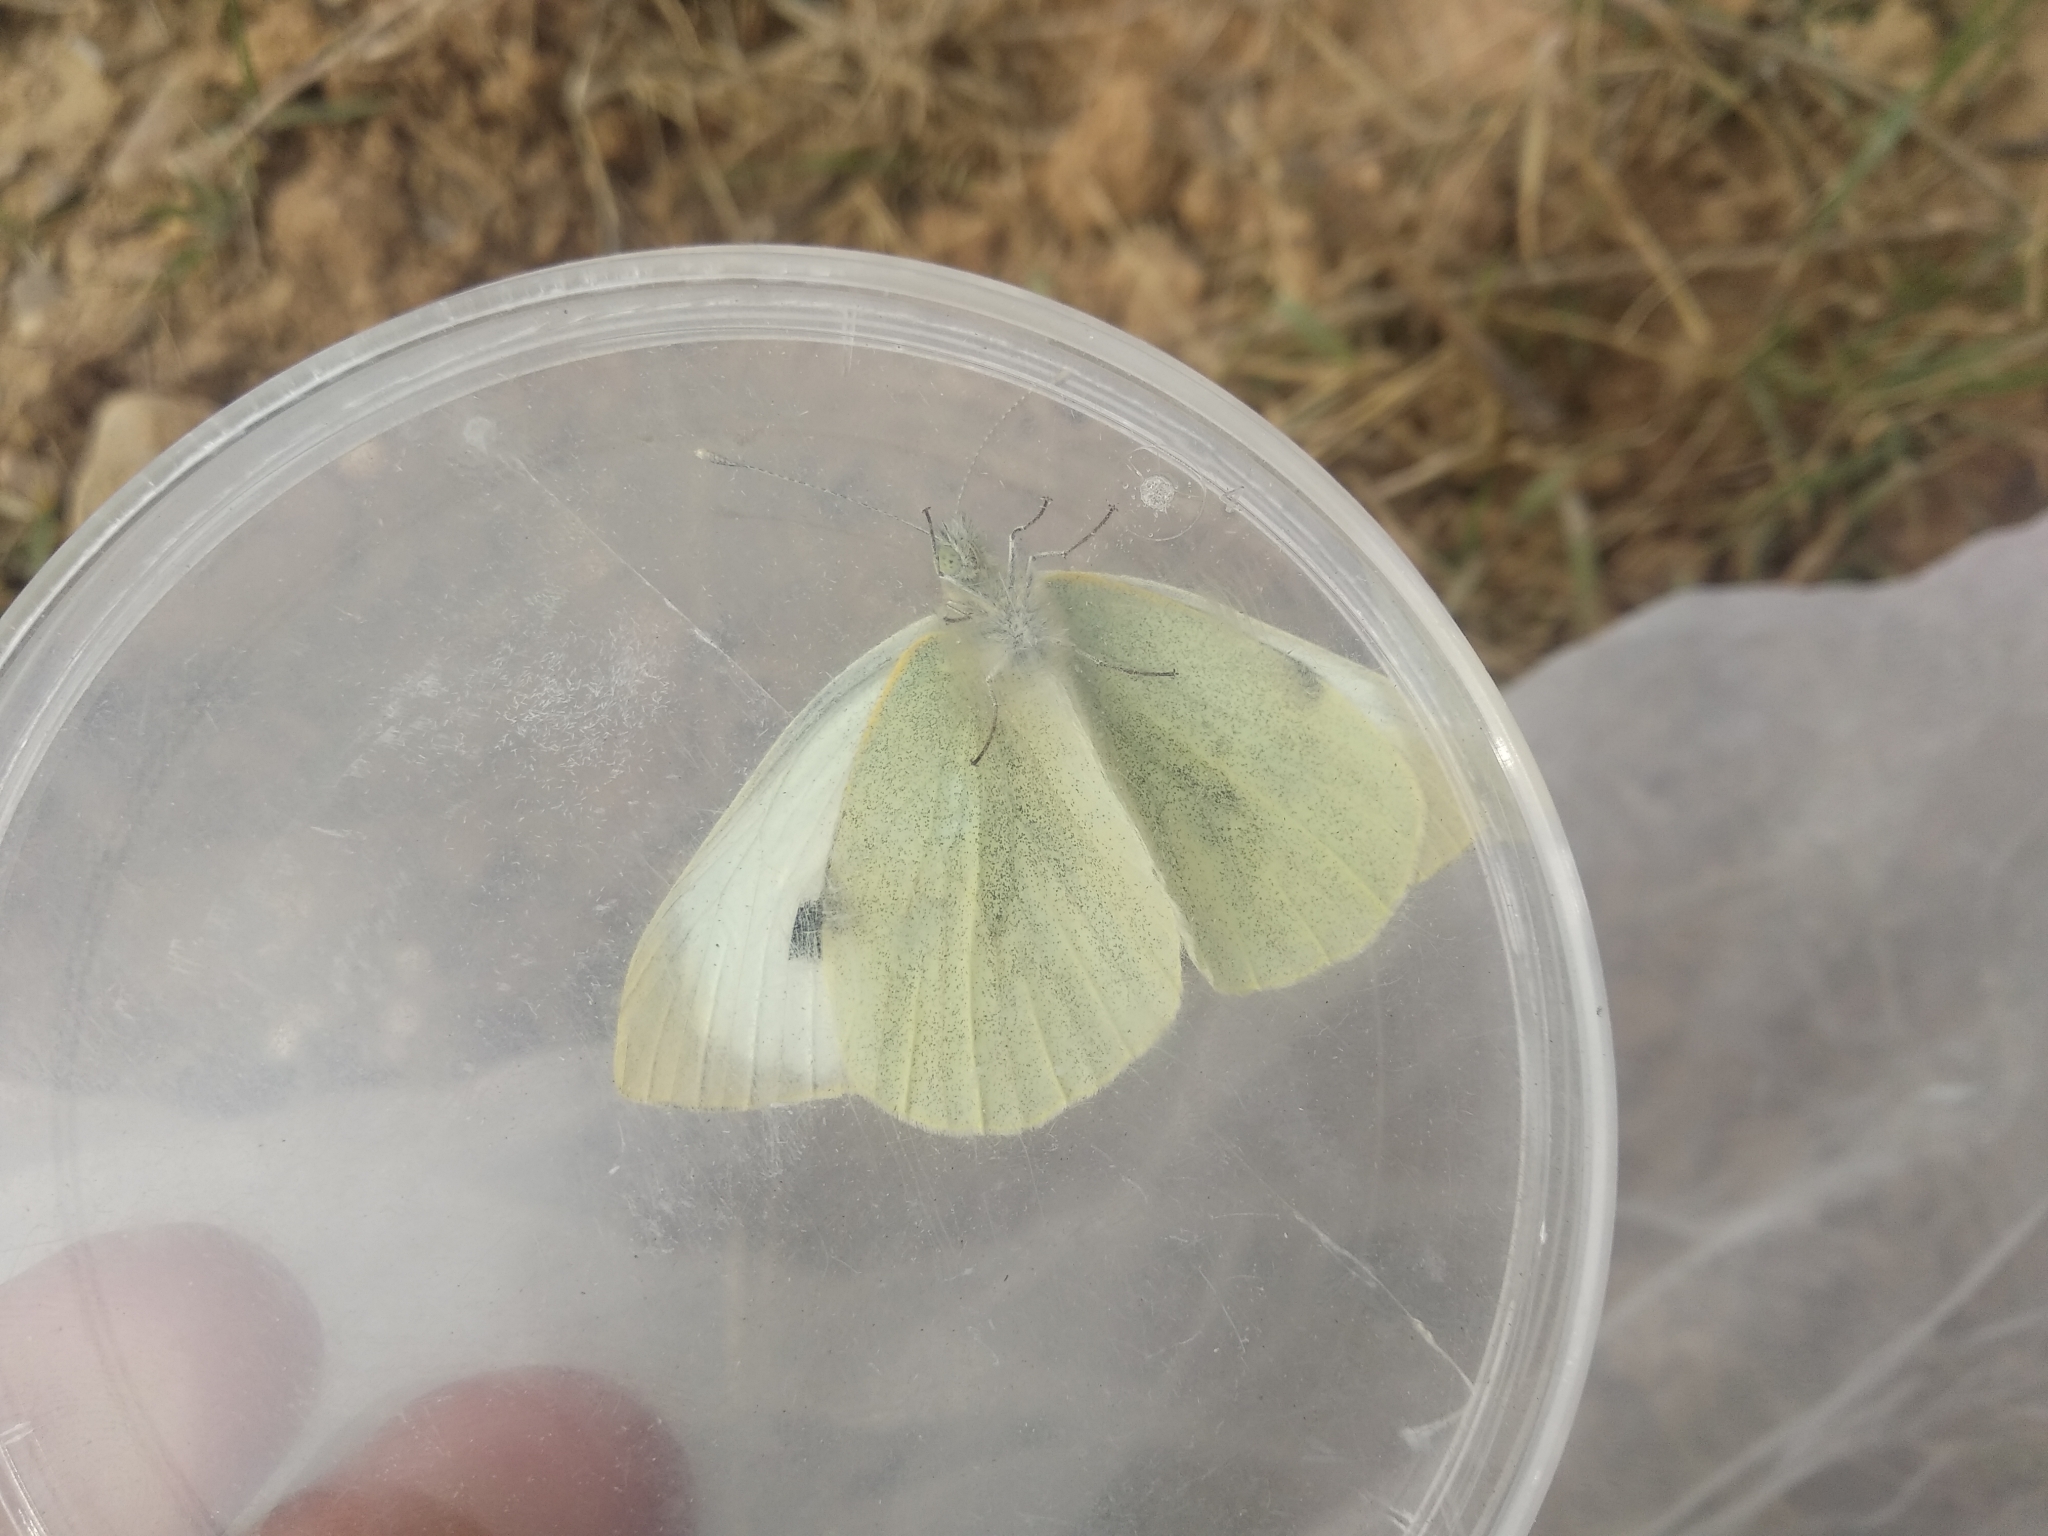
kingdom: Animalia
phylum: Arthropoda
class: Insecta
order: Lepidoptera
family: Pieridae
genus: Pieris
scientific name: Pieris brassicae
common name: Large white
